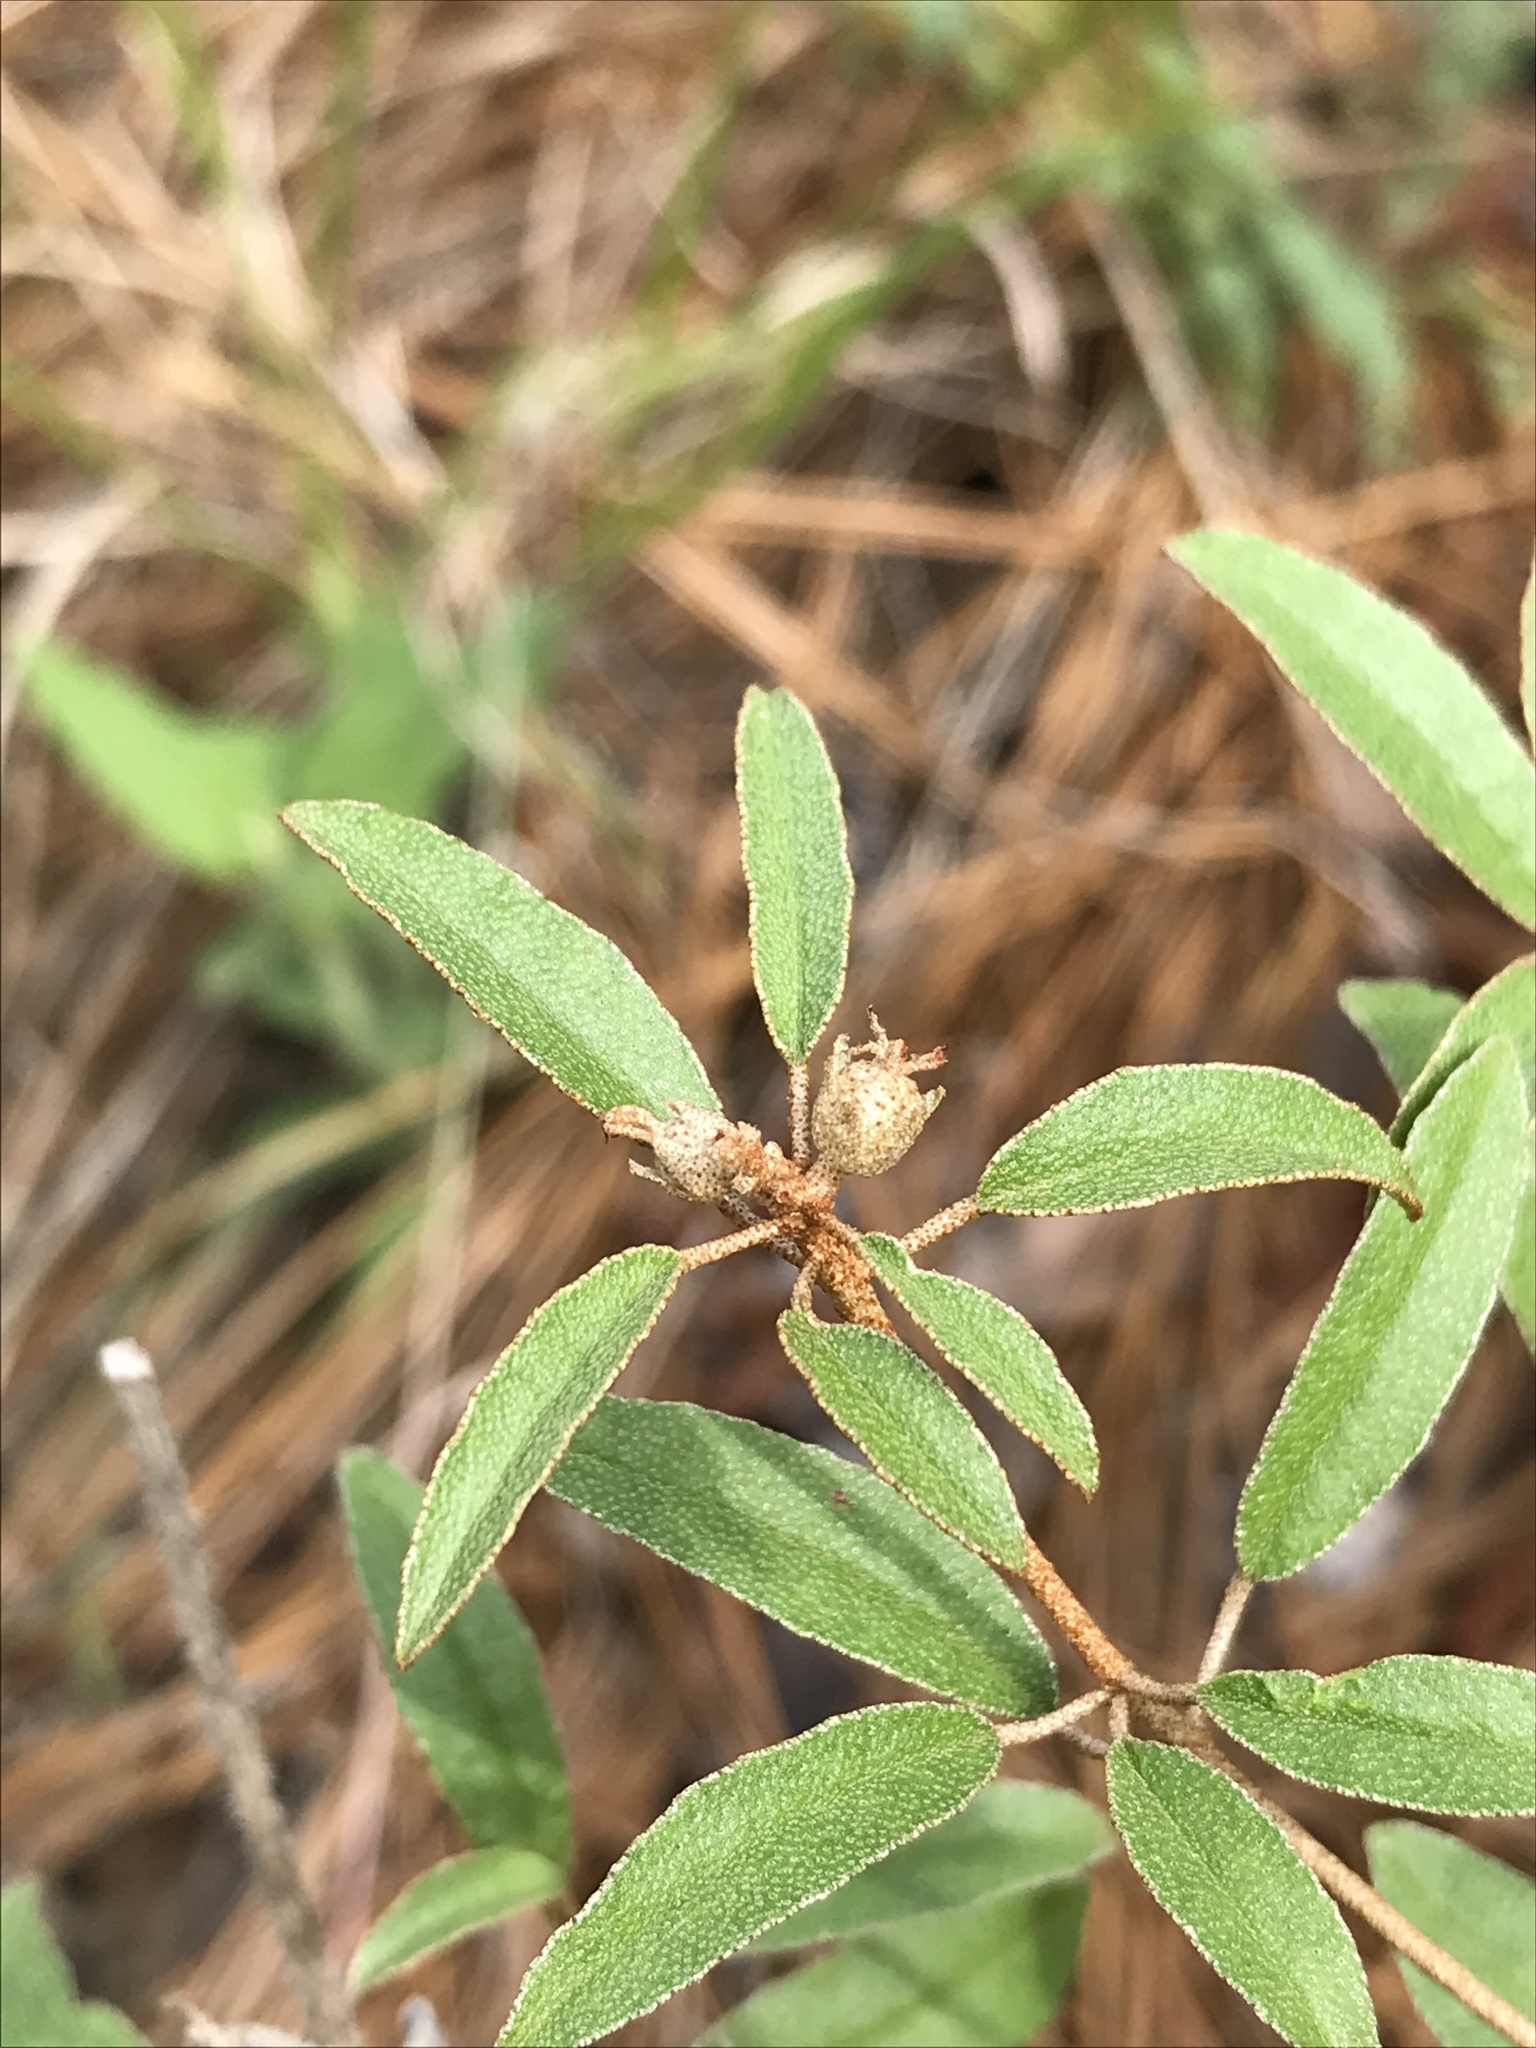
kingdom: Plantae
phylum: Tracheophyta
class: Magnoliopsida
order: Malpighiales
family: Euphorbiaceae
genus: Croton
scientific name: Croton argyranthemus
